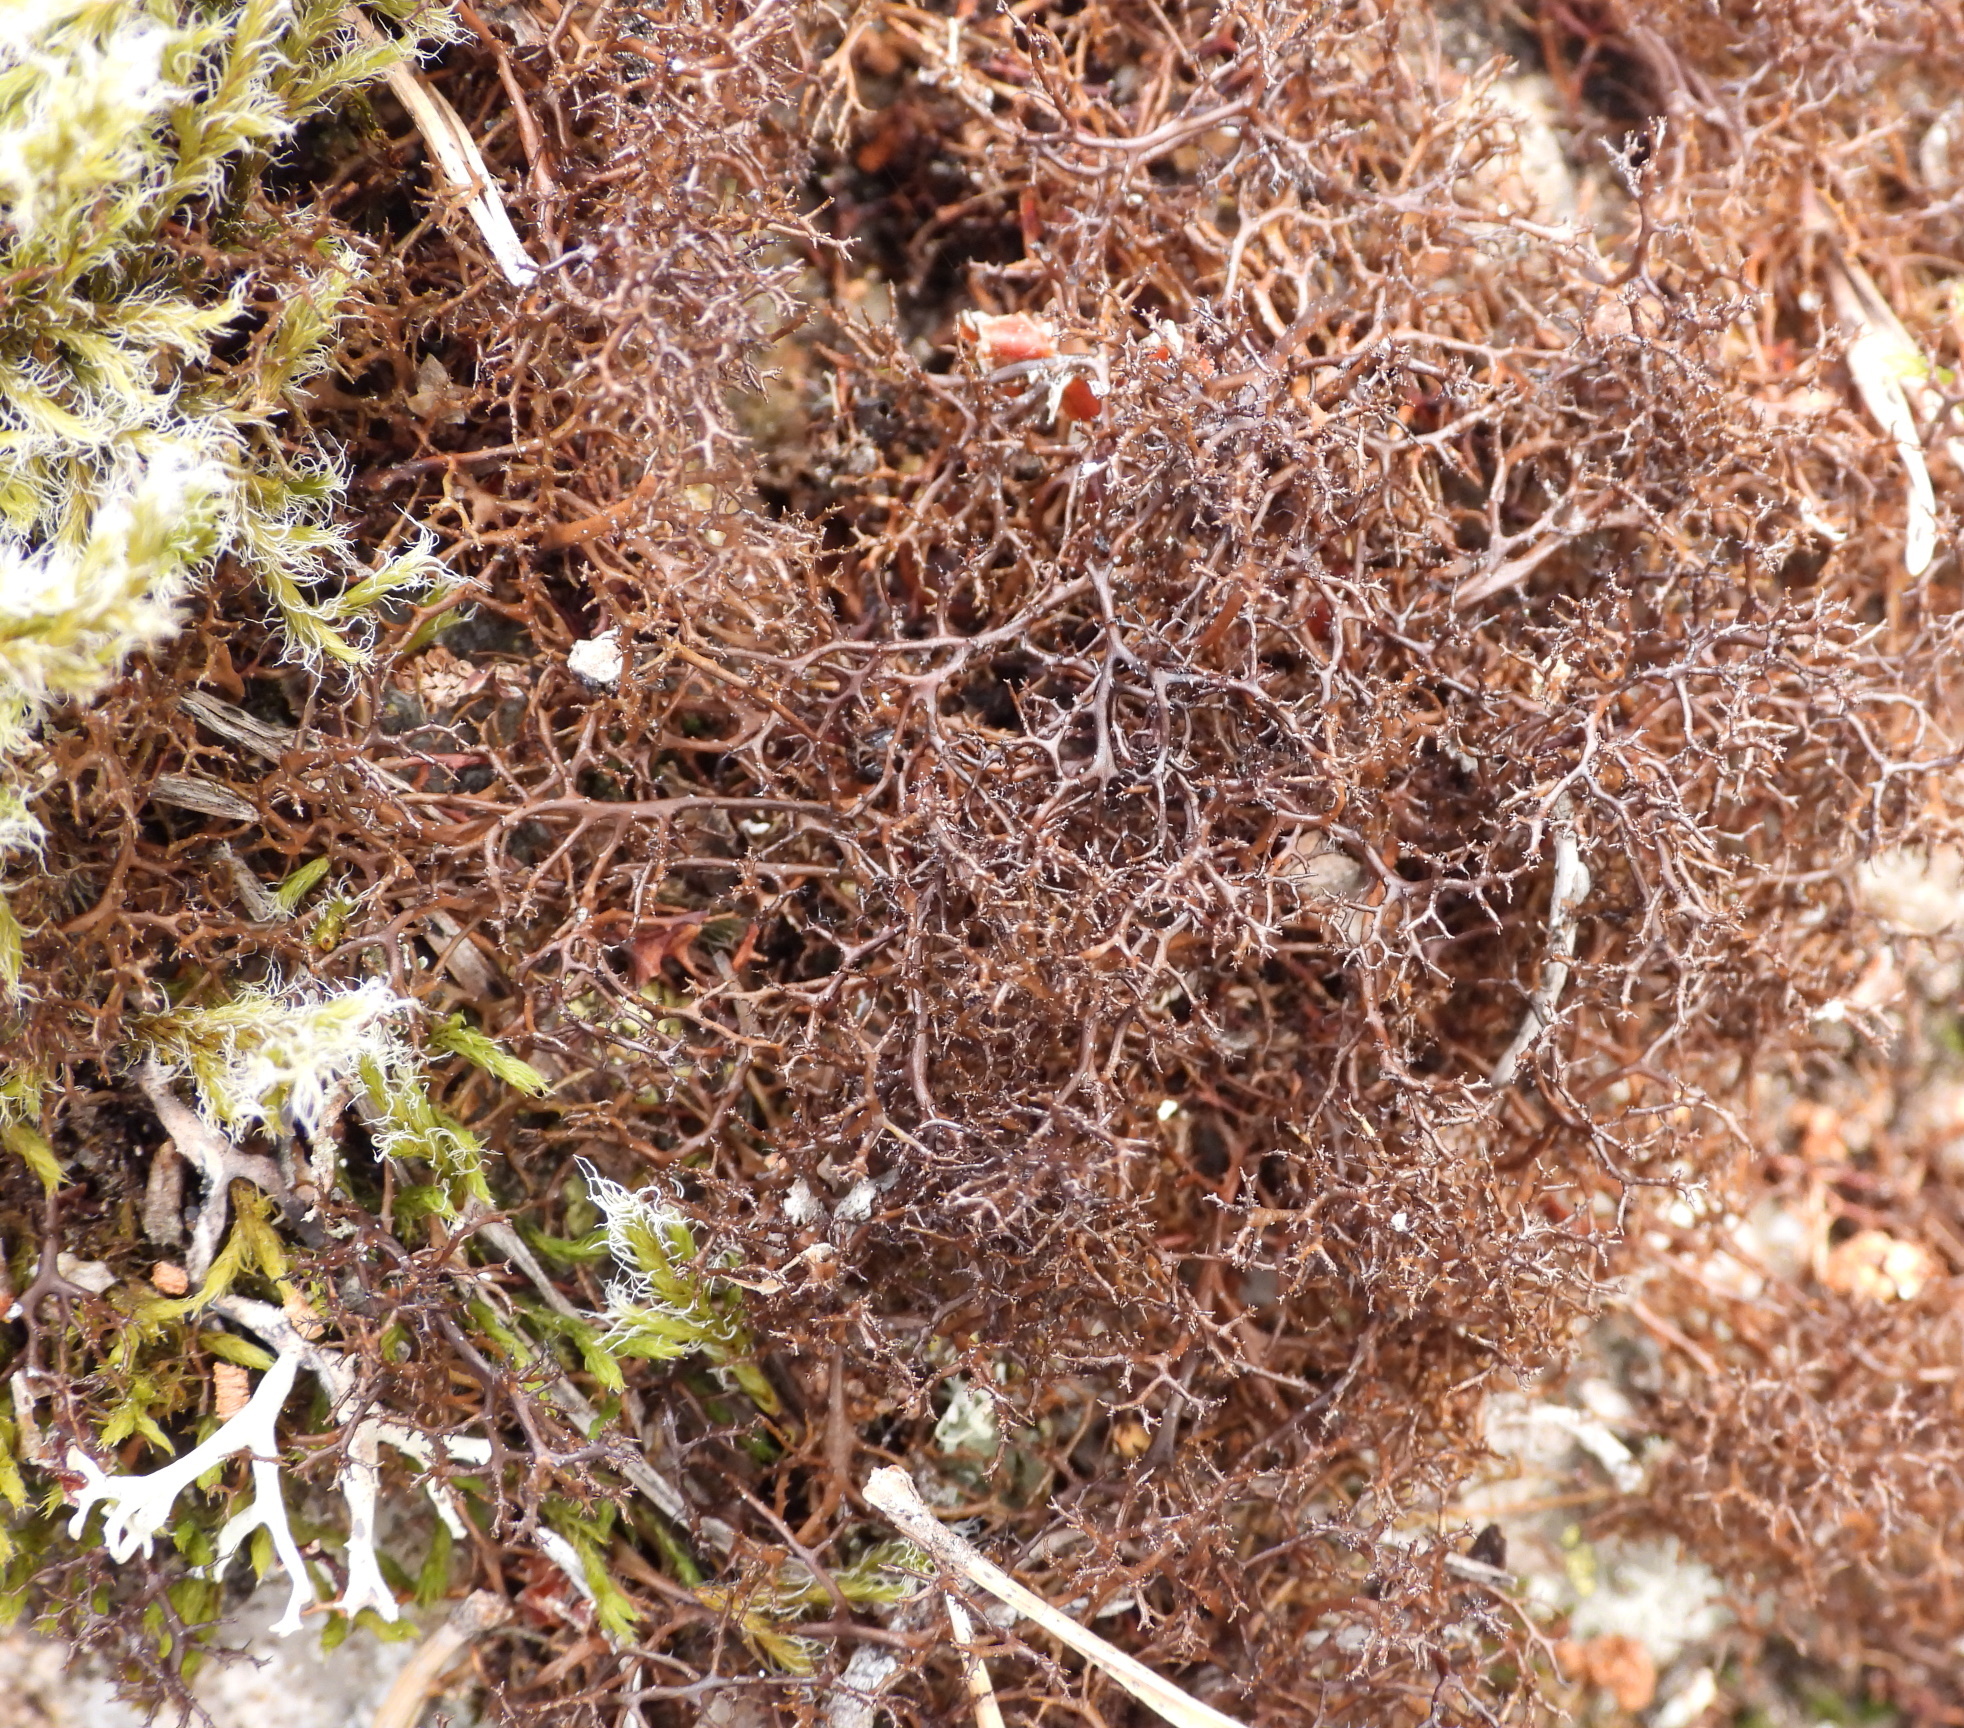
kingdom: Fungi
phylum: Ascomycota
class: Lecanoromycetes
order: Lecanorales
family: Parmeliaceae
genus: Cetraria
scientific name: Cetraria muricata
